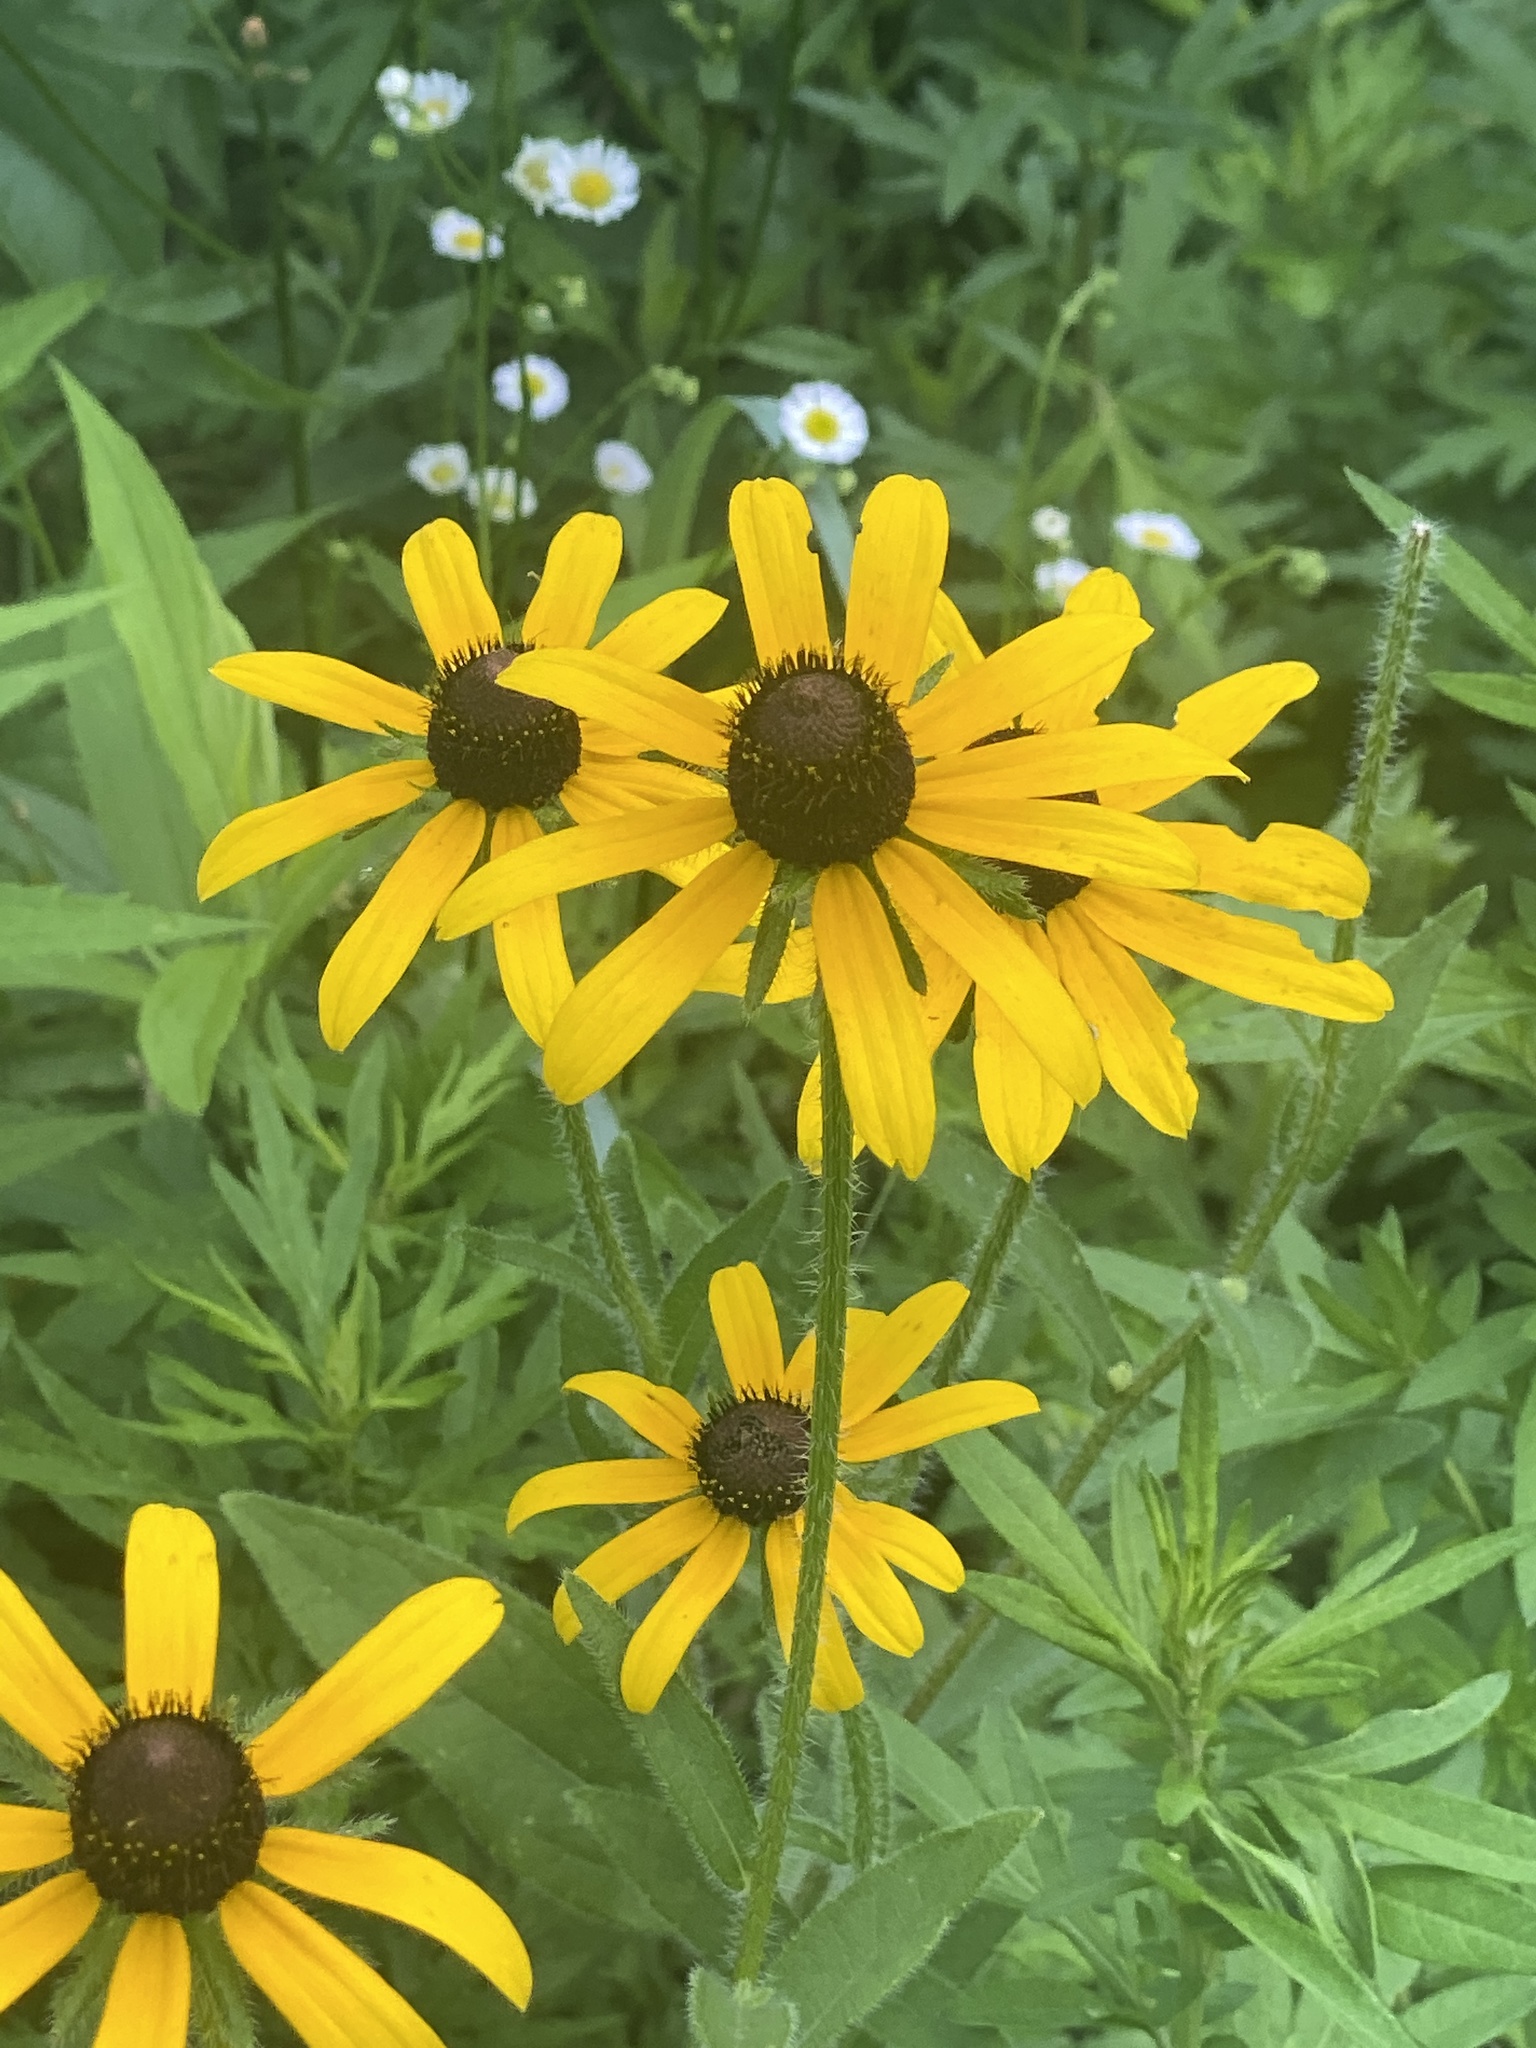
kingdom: Plantae
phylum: Tracheophyta
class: Magnoliopsida
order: Asterales
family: Asteraceae
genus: Rudbeckia
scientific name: Rudbeckia hirta
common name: Black-eyed-susan
